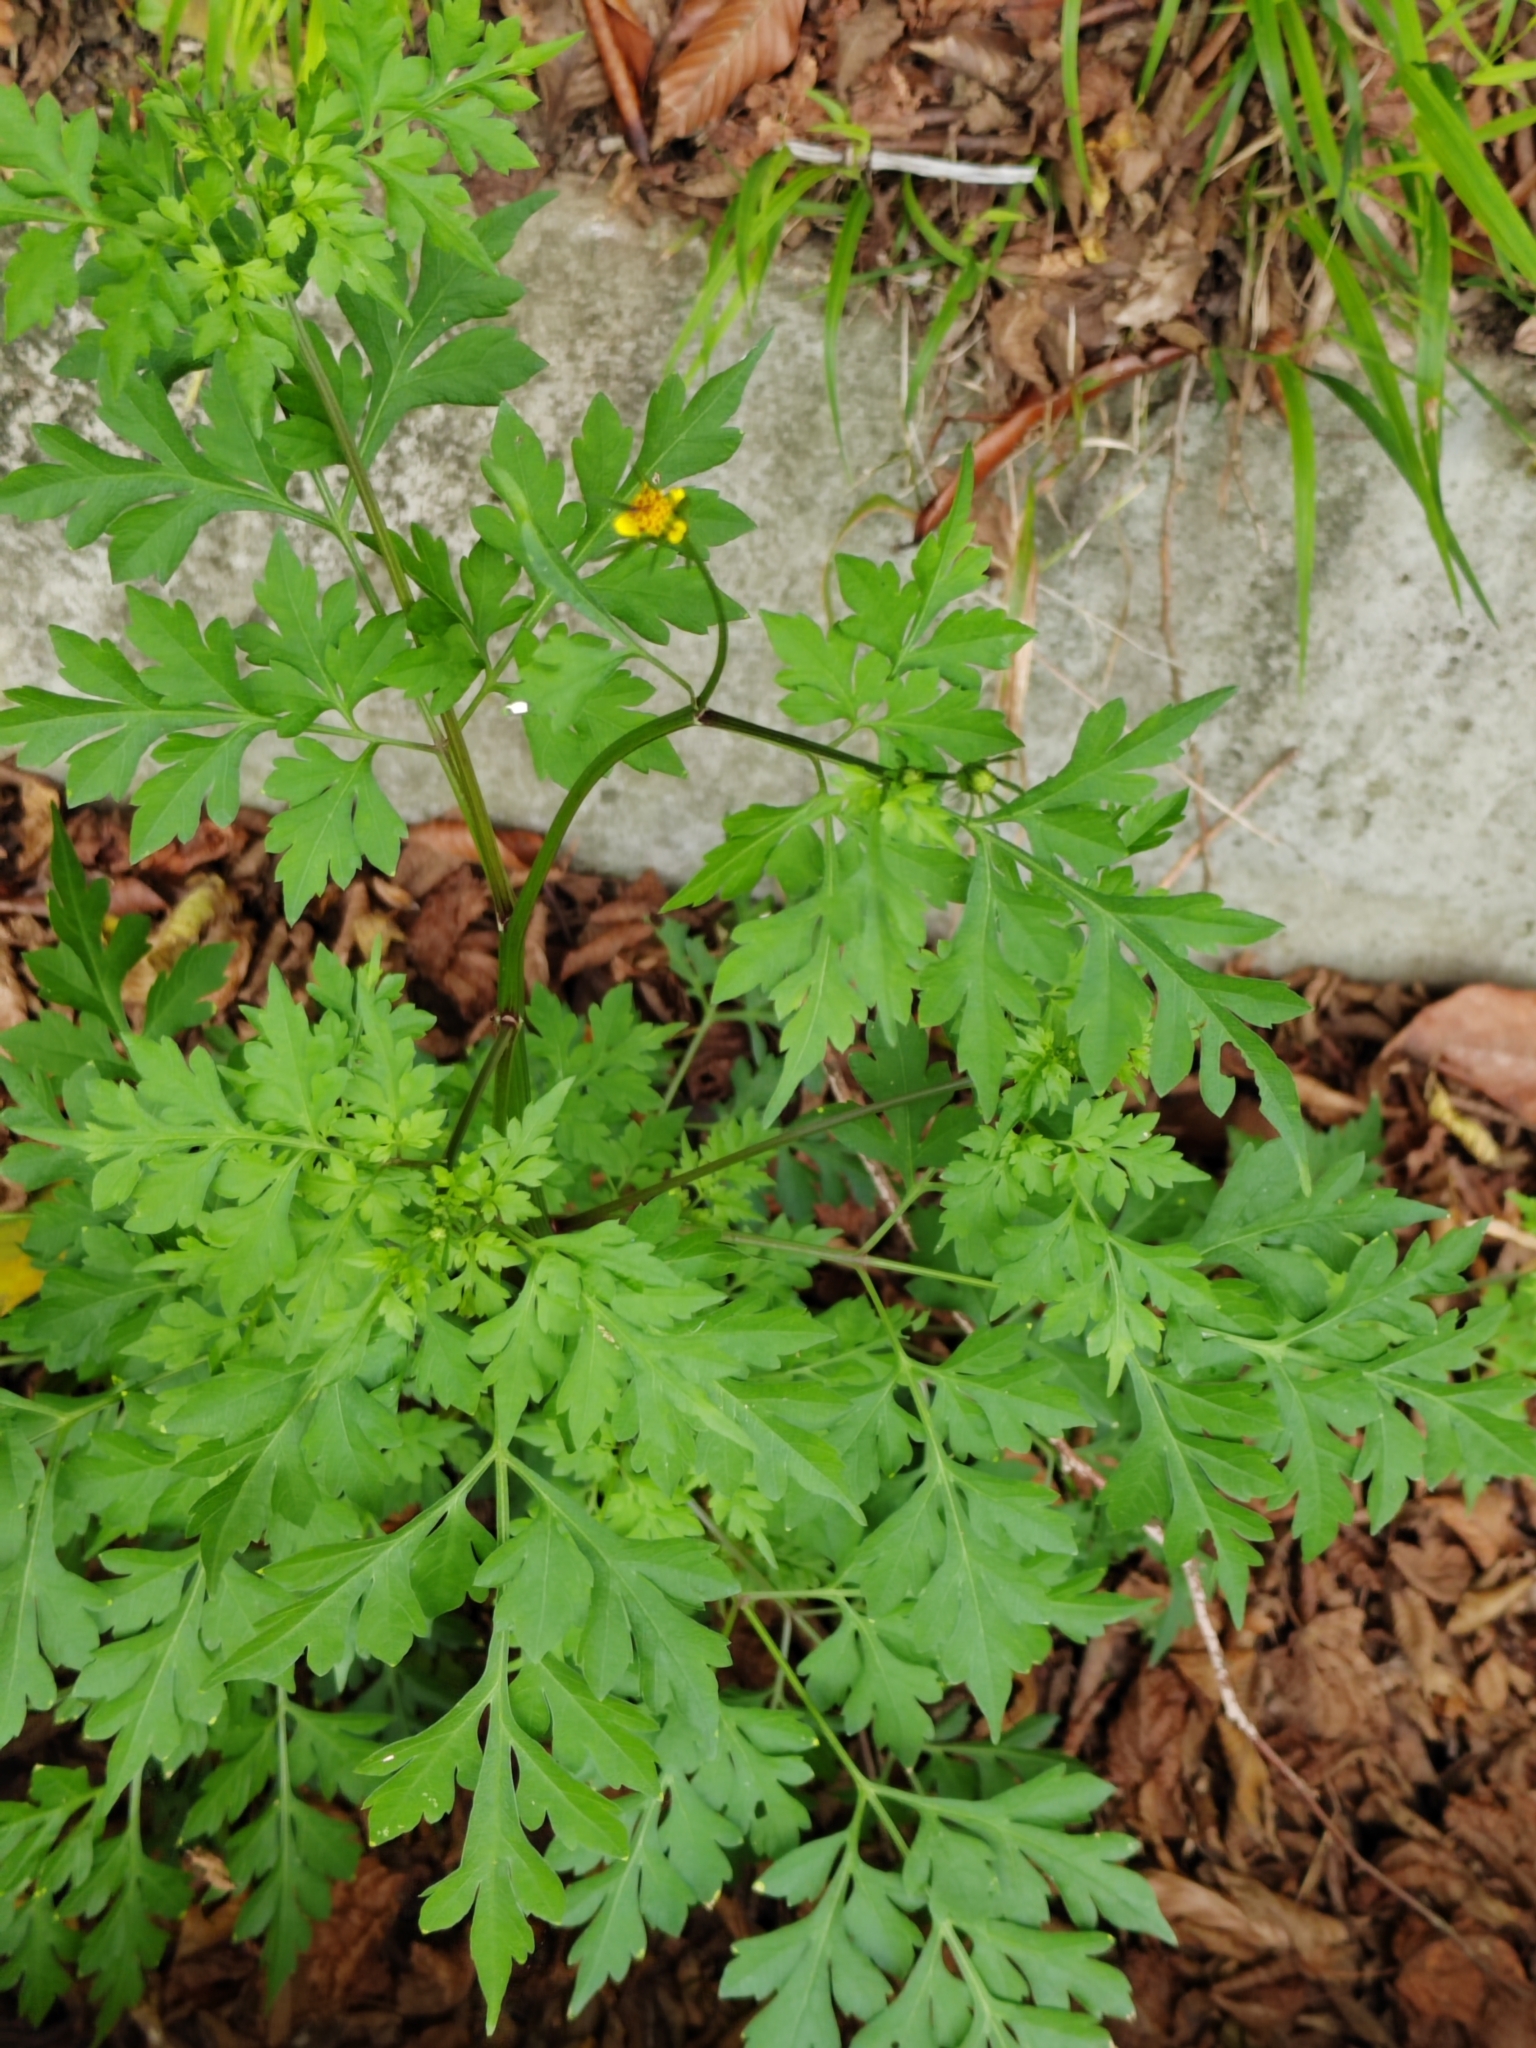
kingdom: Plantae
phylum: Tracheophyta
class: Magnoliopsida
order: Asterales
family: Asteraceae
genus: Bidens
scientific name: Bidens bipinnata
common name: Spanish-needles
